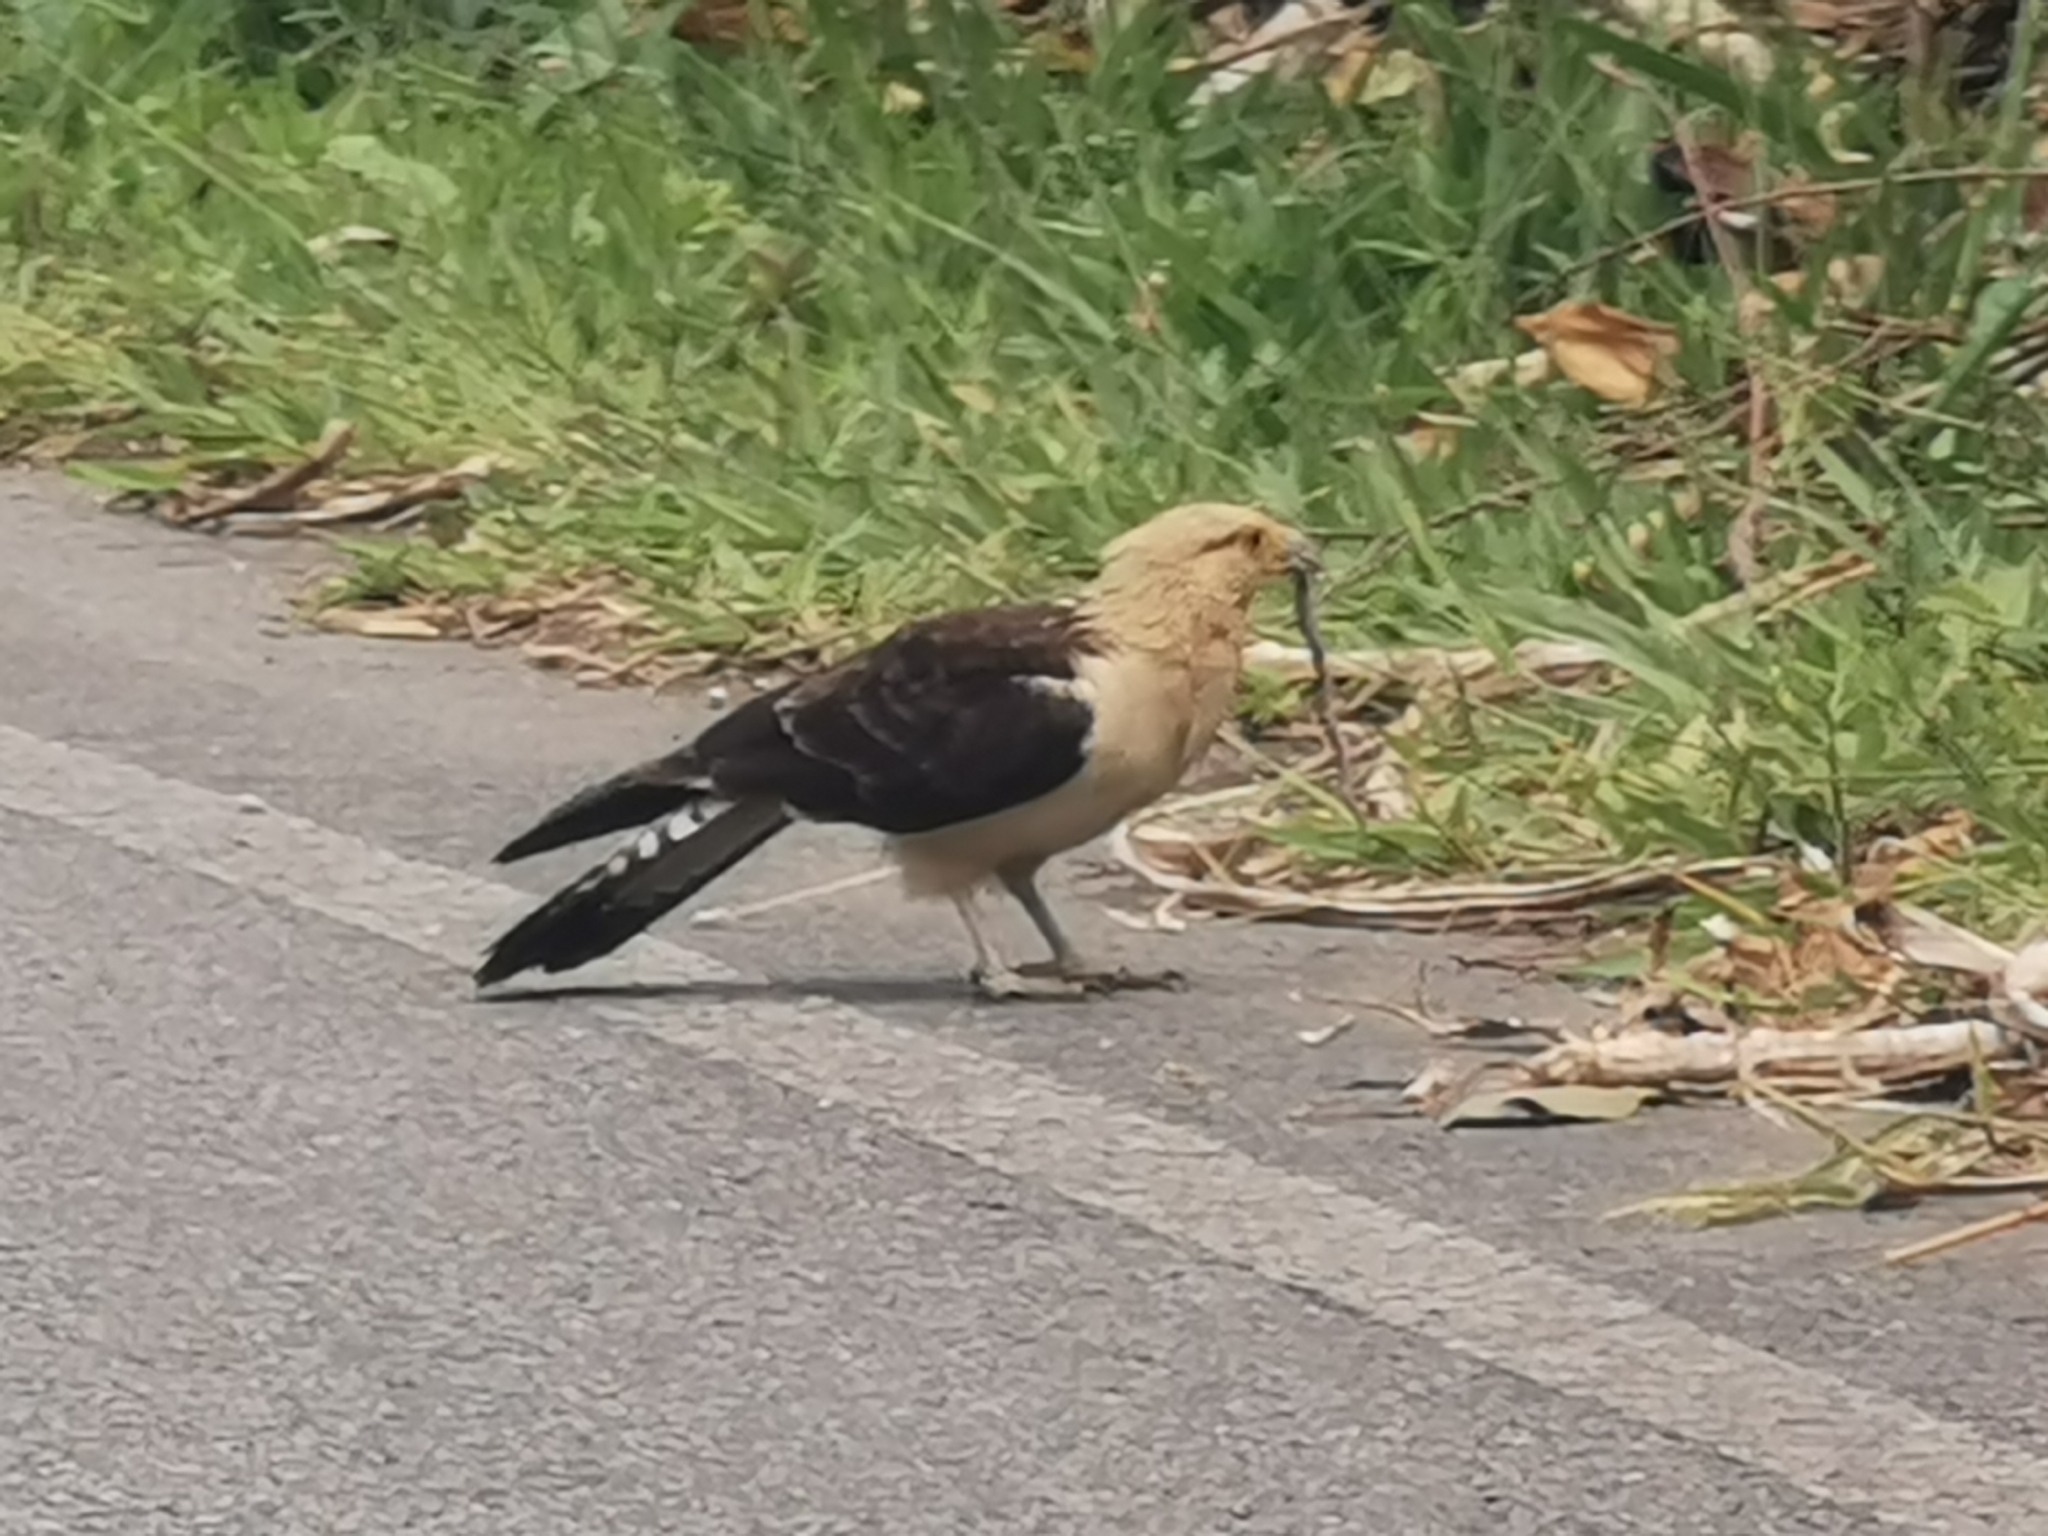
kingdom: Animalia
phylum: Chordata
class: Aves
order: Falconiformes
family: Falconidae
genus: Daptrius
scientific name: Daptrius
